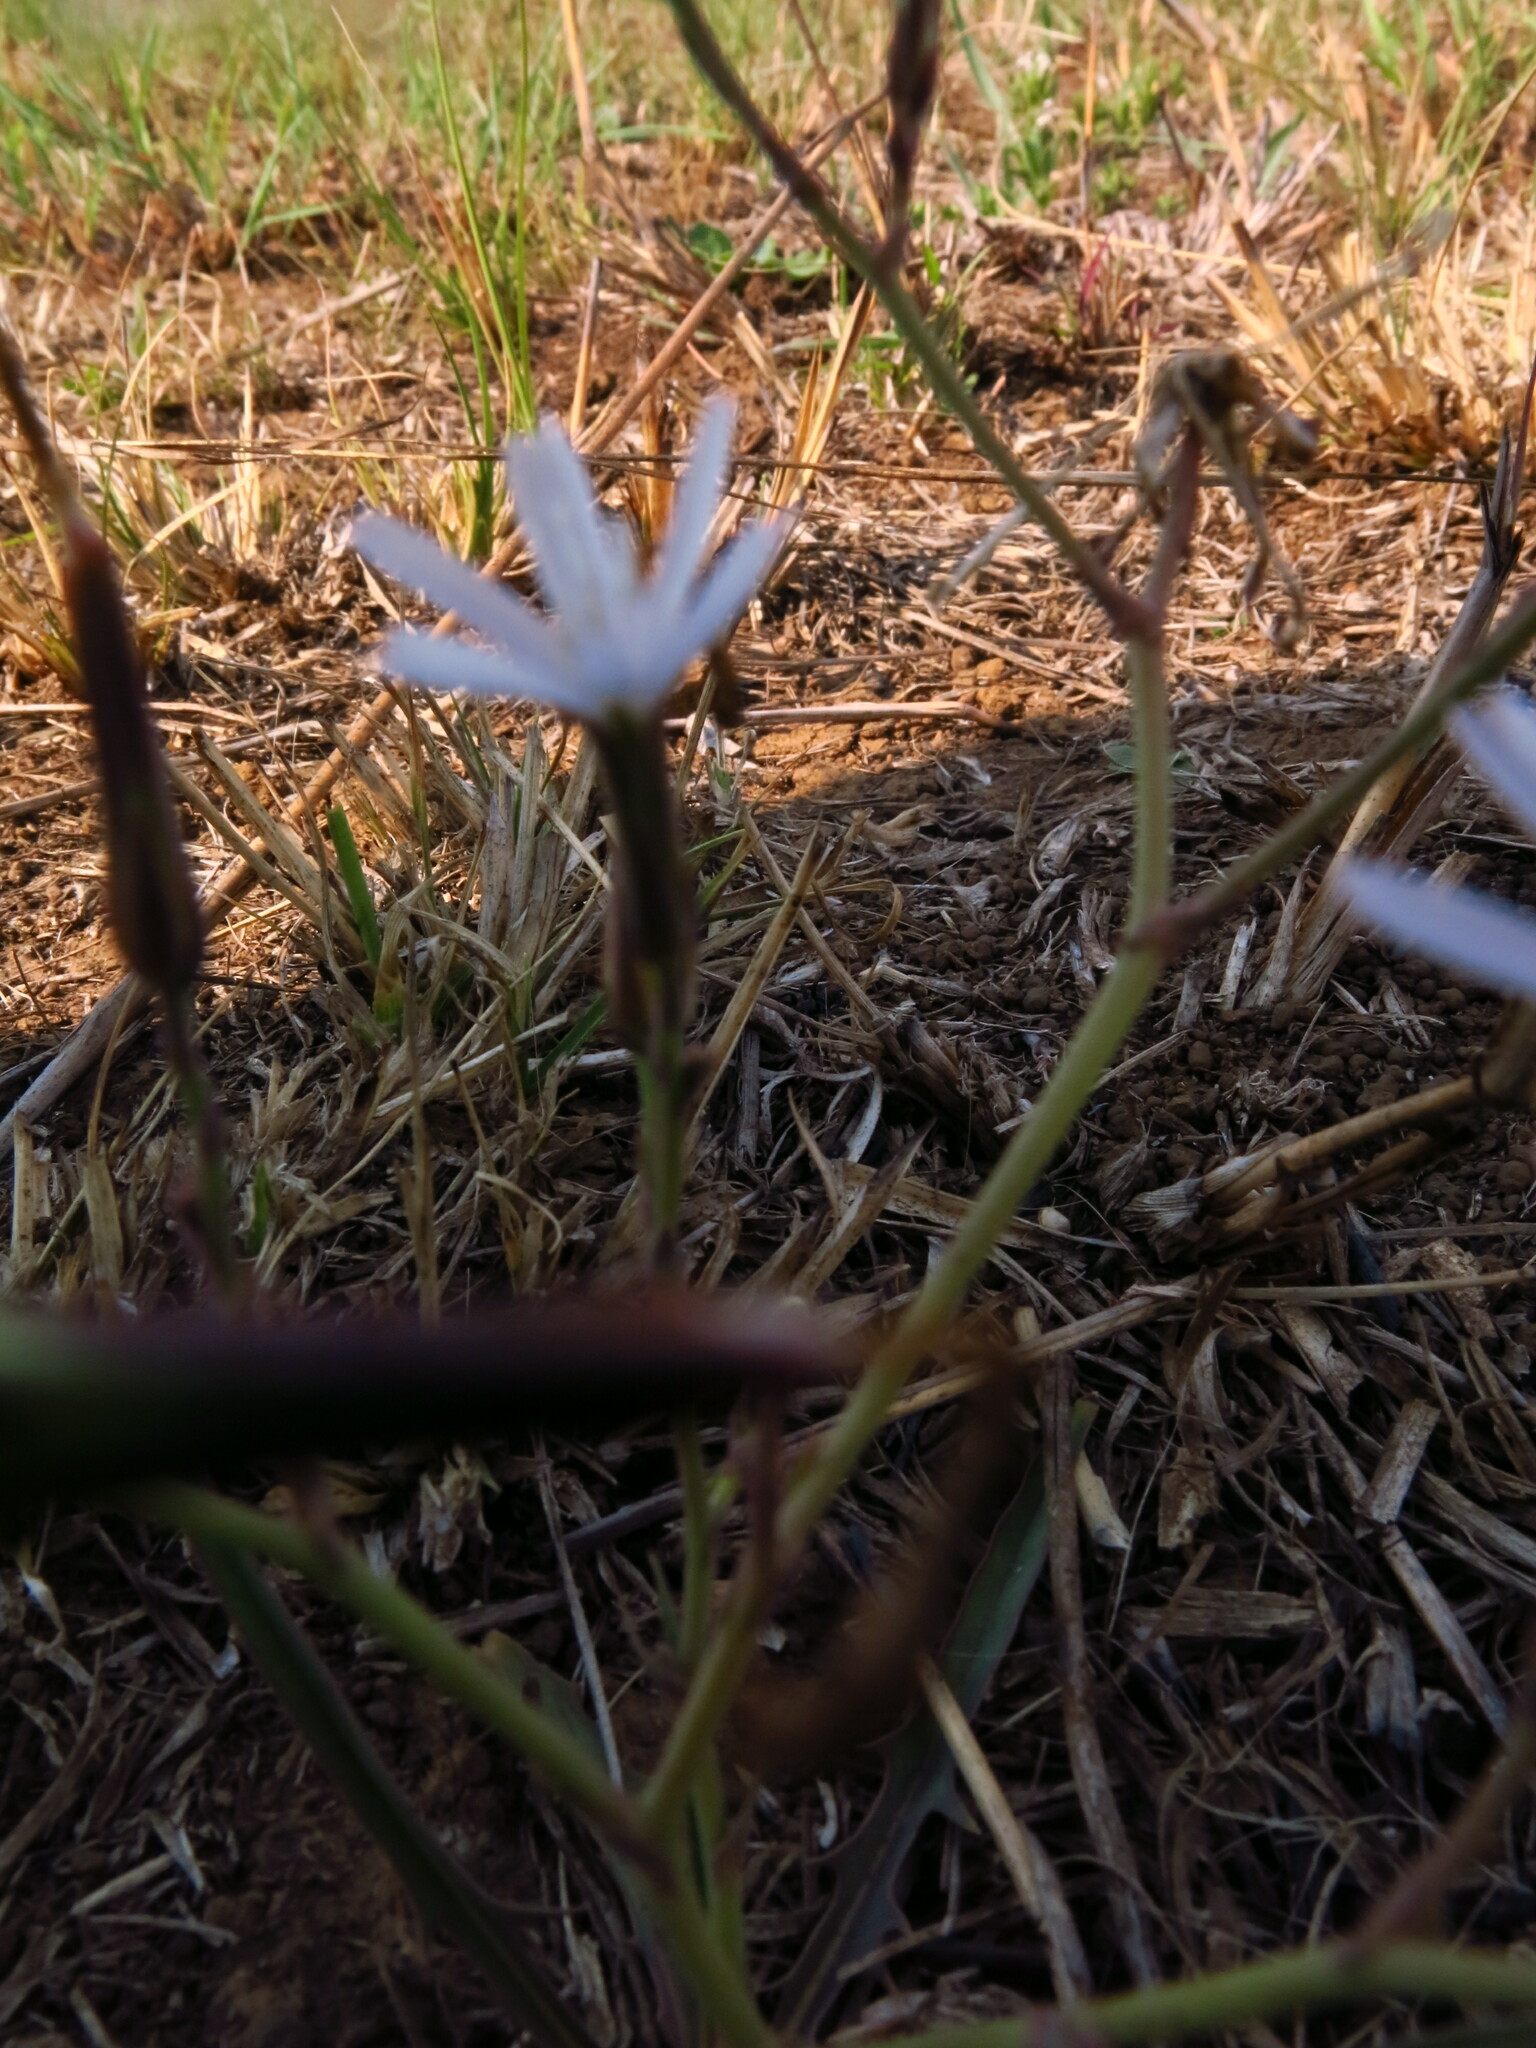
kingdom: Plantae
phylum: Tracheophyta
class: Magnoliopsida
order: Asterales
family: Asteraceae
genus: Lactuca
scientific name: Lactuca inermis
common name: Wild lettuce
